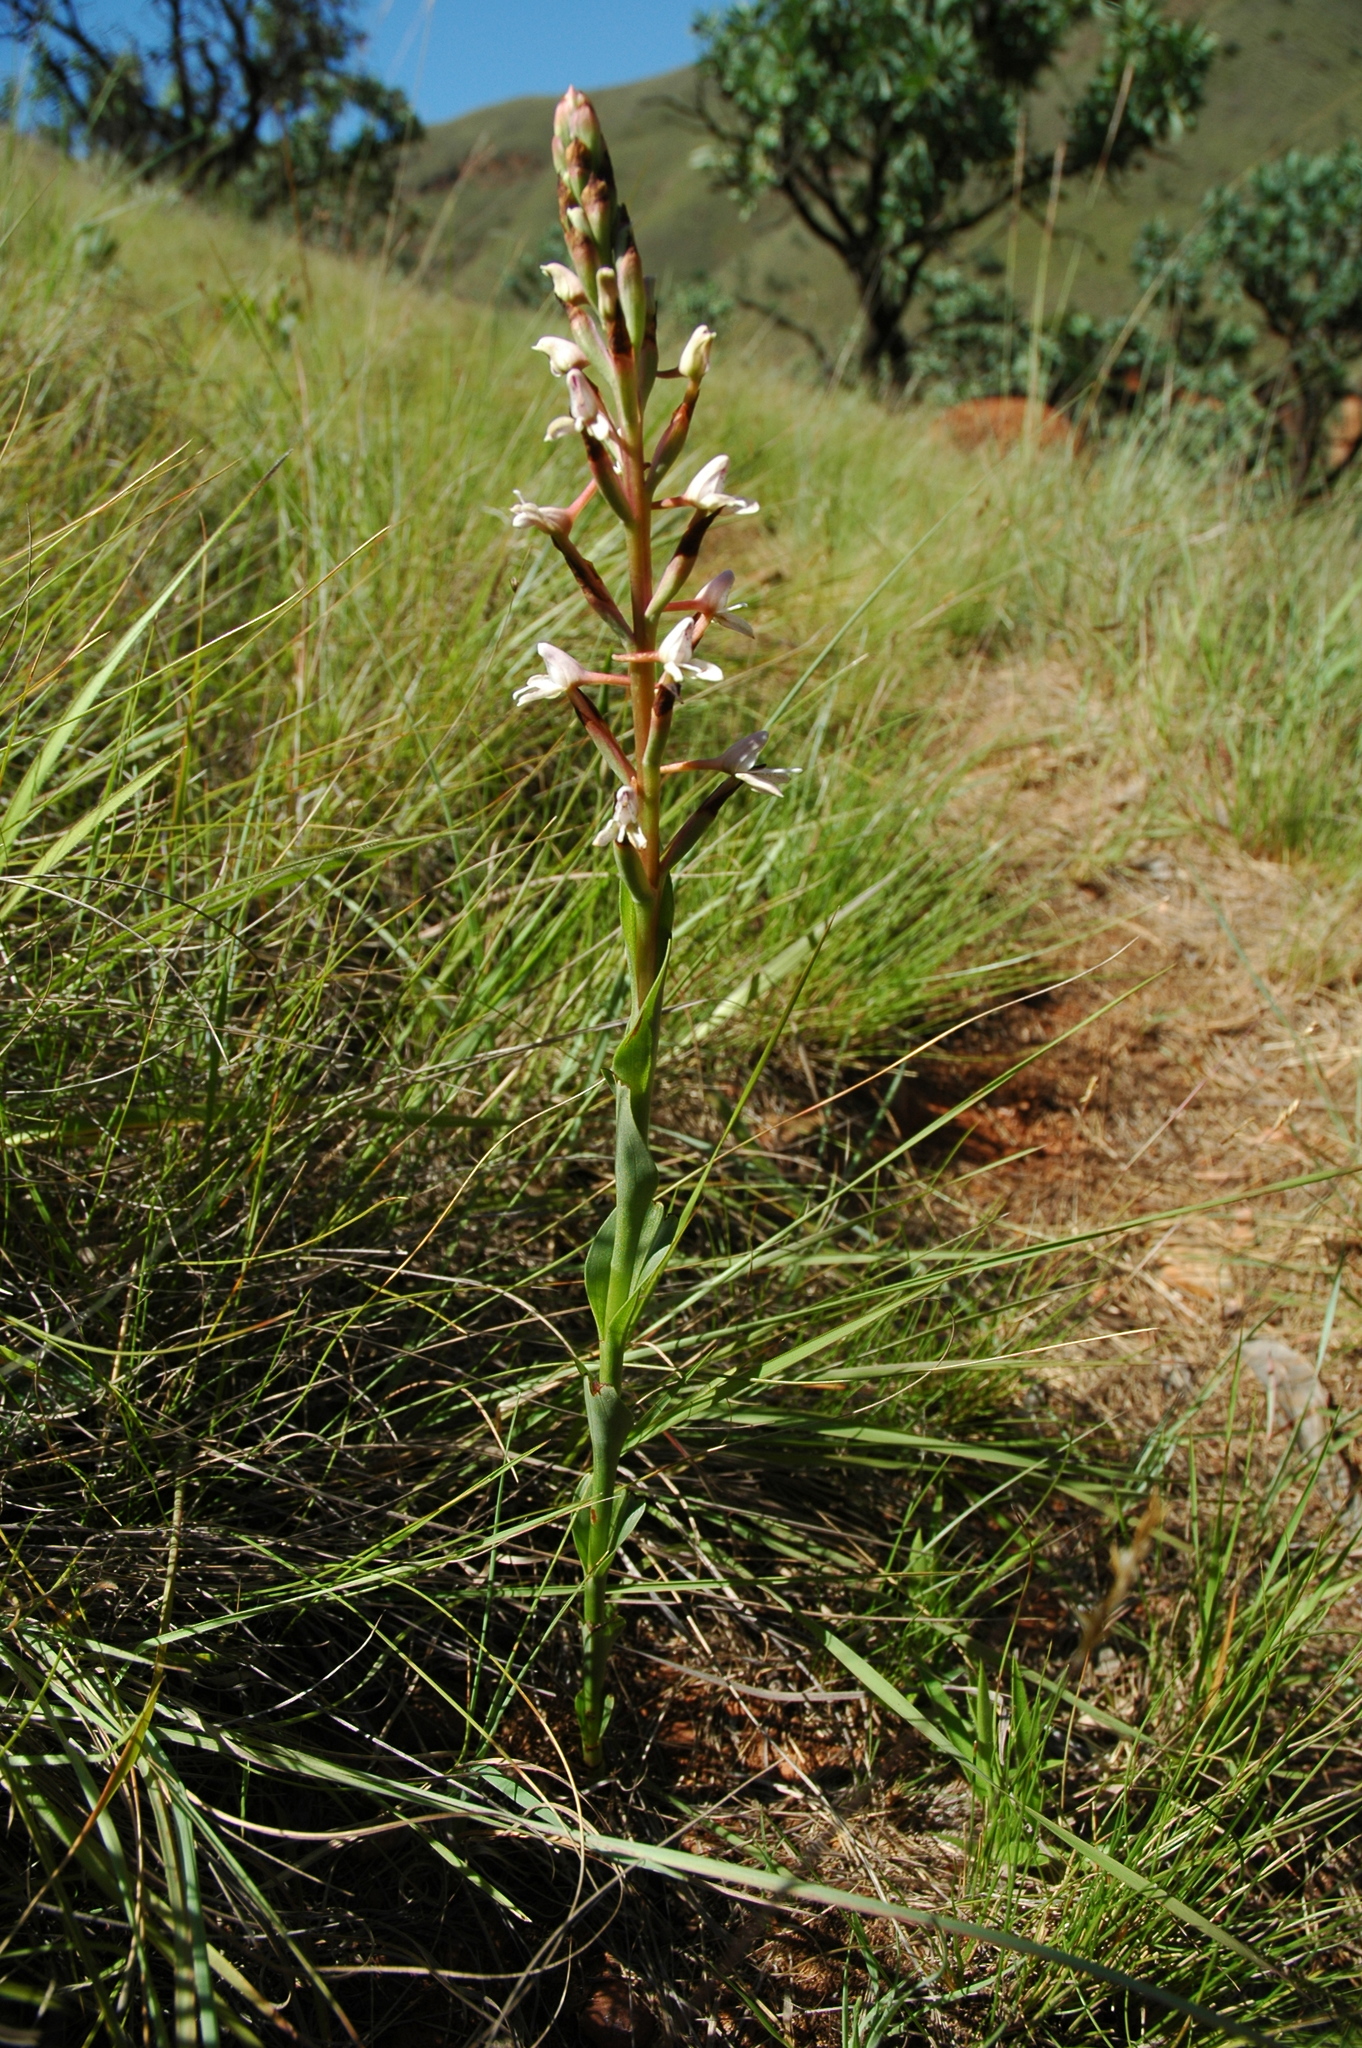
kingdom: Plantae
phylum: Tracheophyta
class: Liliopsida
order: Asparagales
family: Orchidaceae
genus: Disa
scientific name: Disa patula
